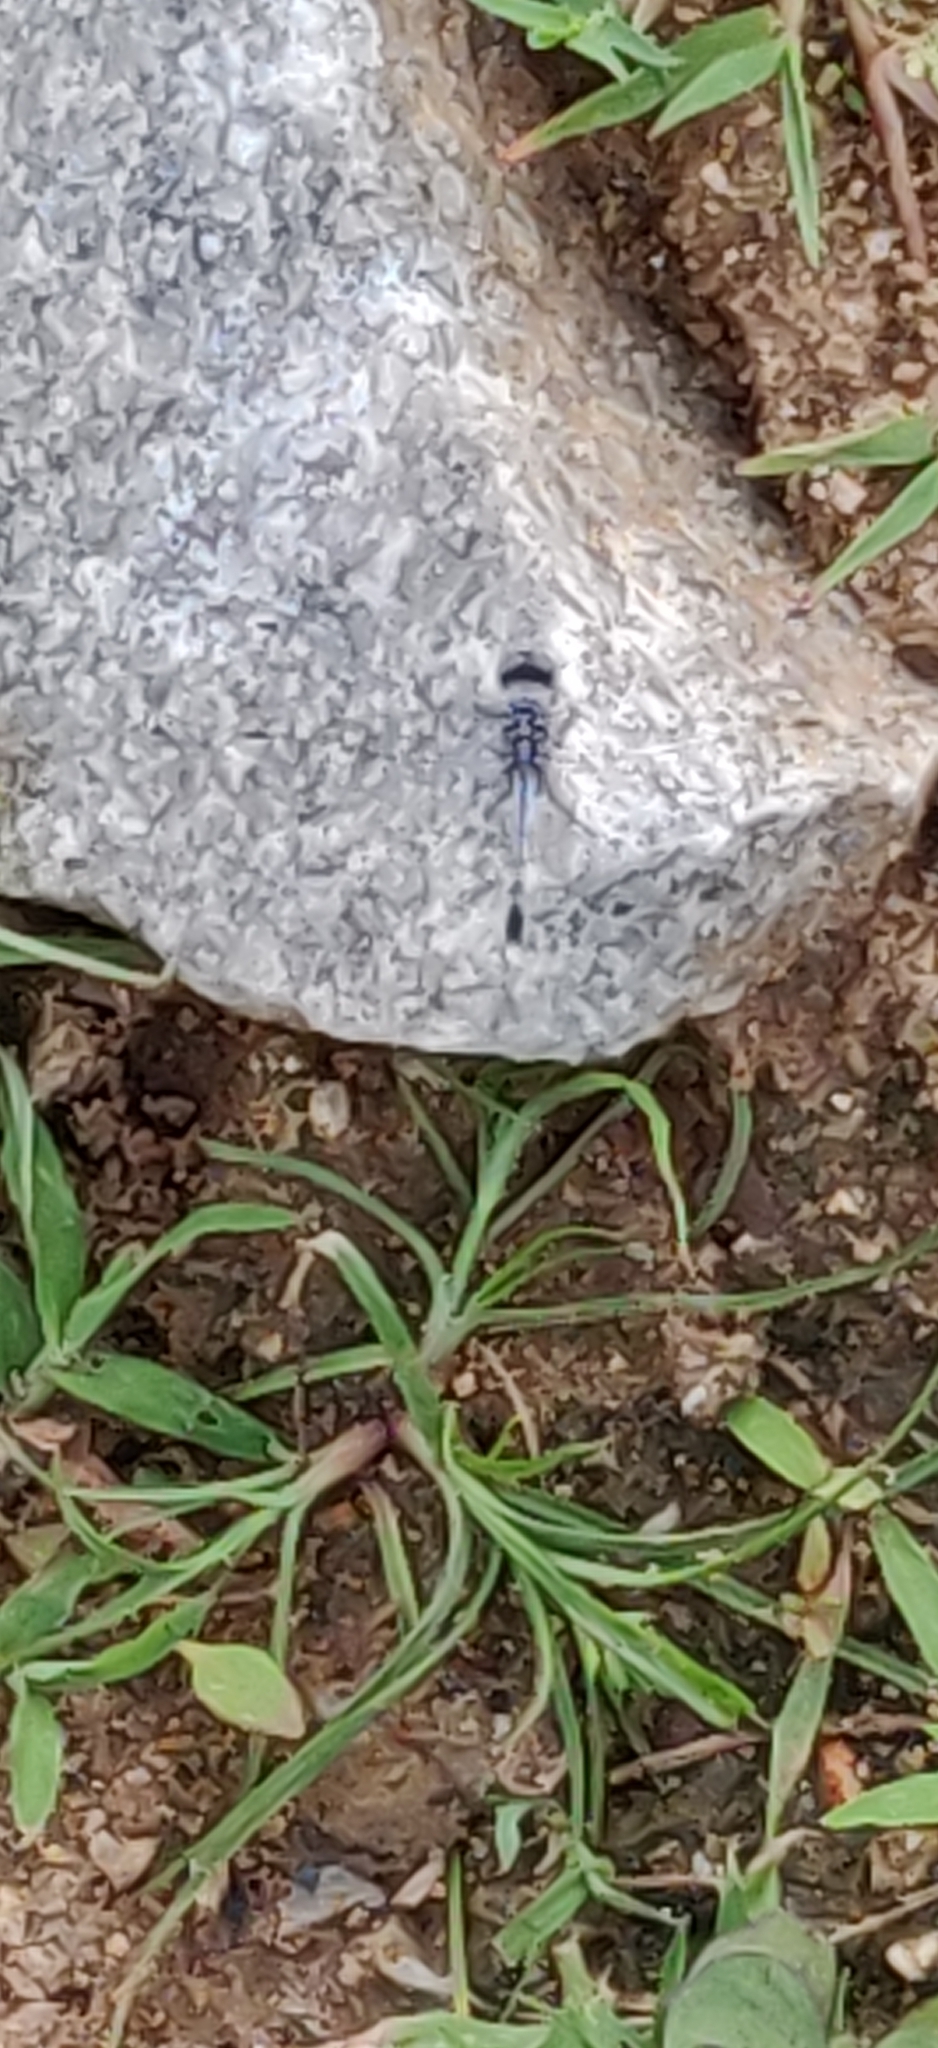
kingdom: Animalia
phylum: Arthropoda
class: Insecta
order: Odonata
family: Libellulidae
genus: Diplacodes
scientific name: Diplacodes trivialis
